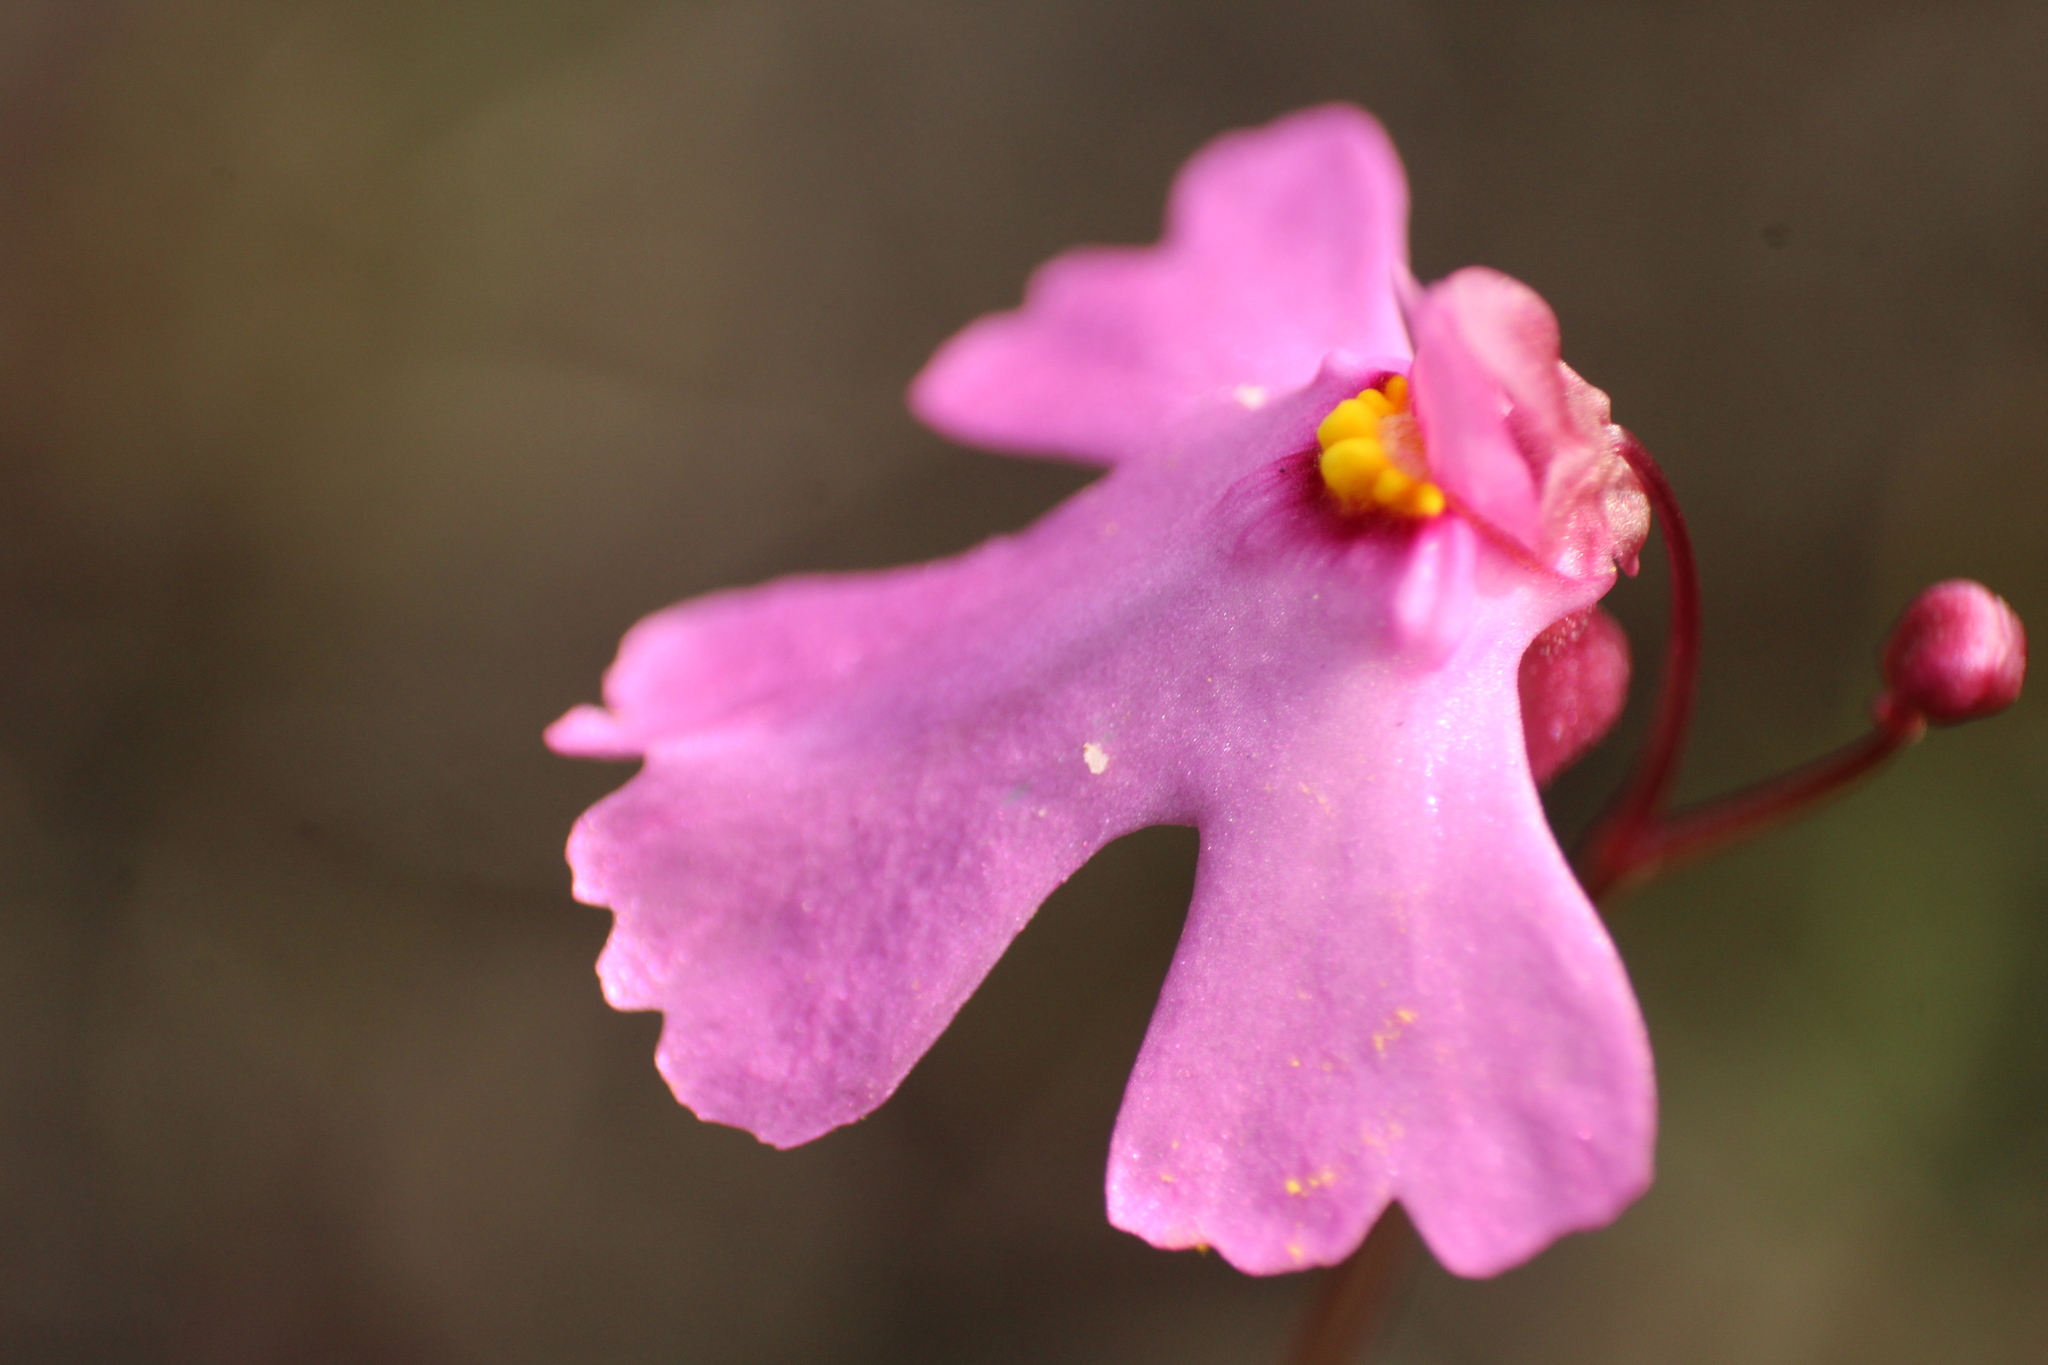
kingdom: Plantae
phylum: Tracheophyta
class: Magnoliopsida
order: Lamiales
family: Lentibulariaceae
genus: Utricularia
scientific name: Utricularia multifida
